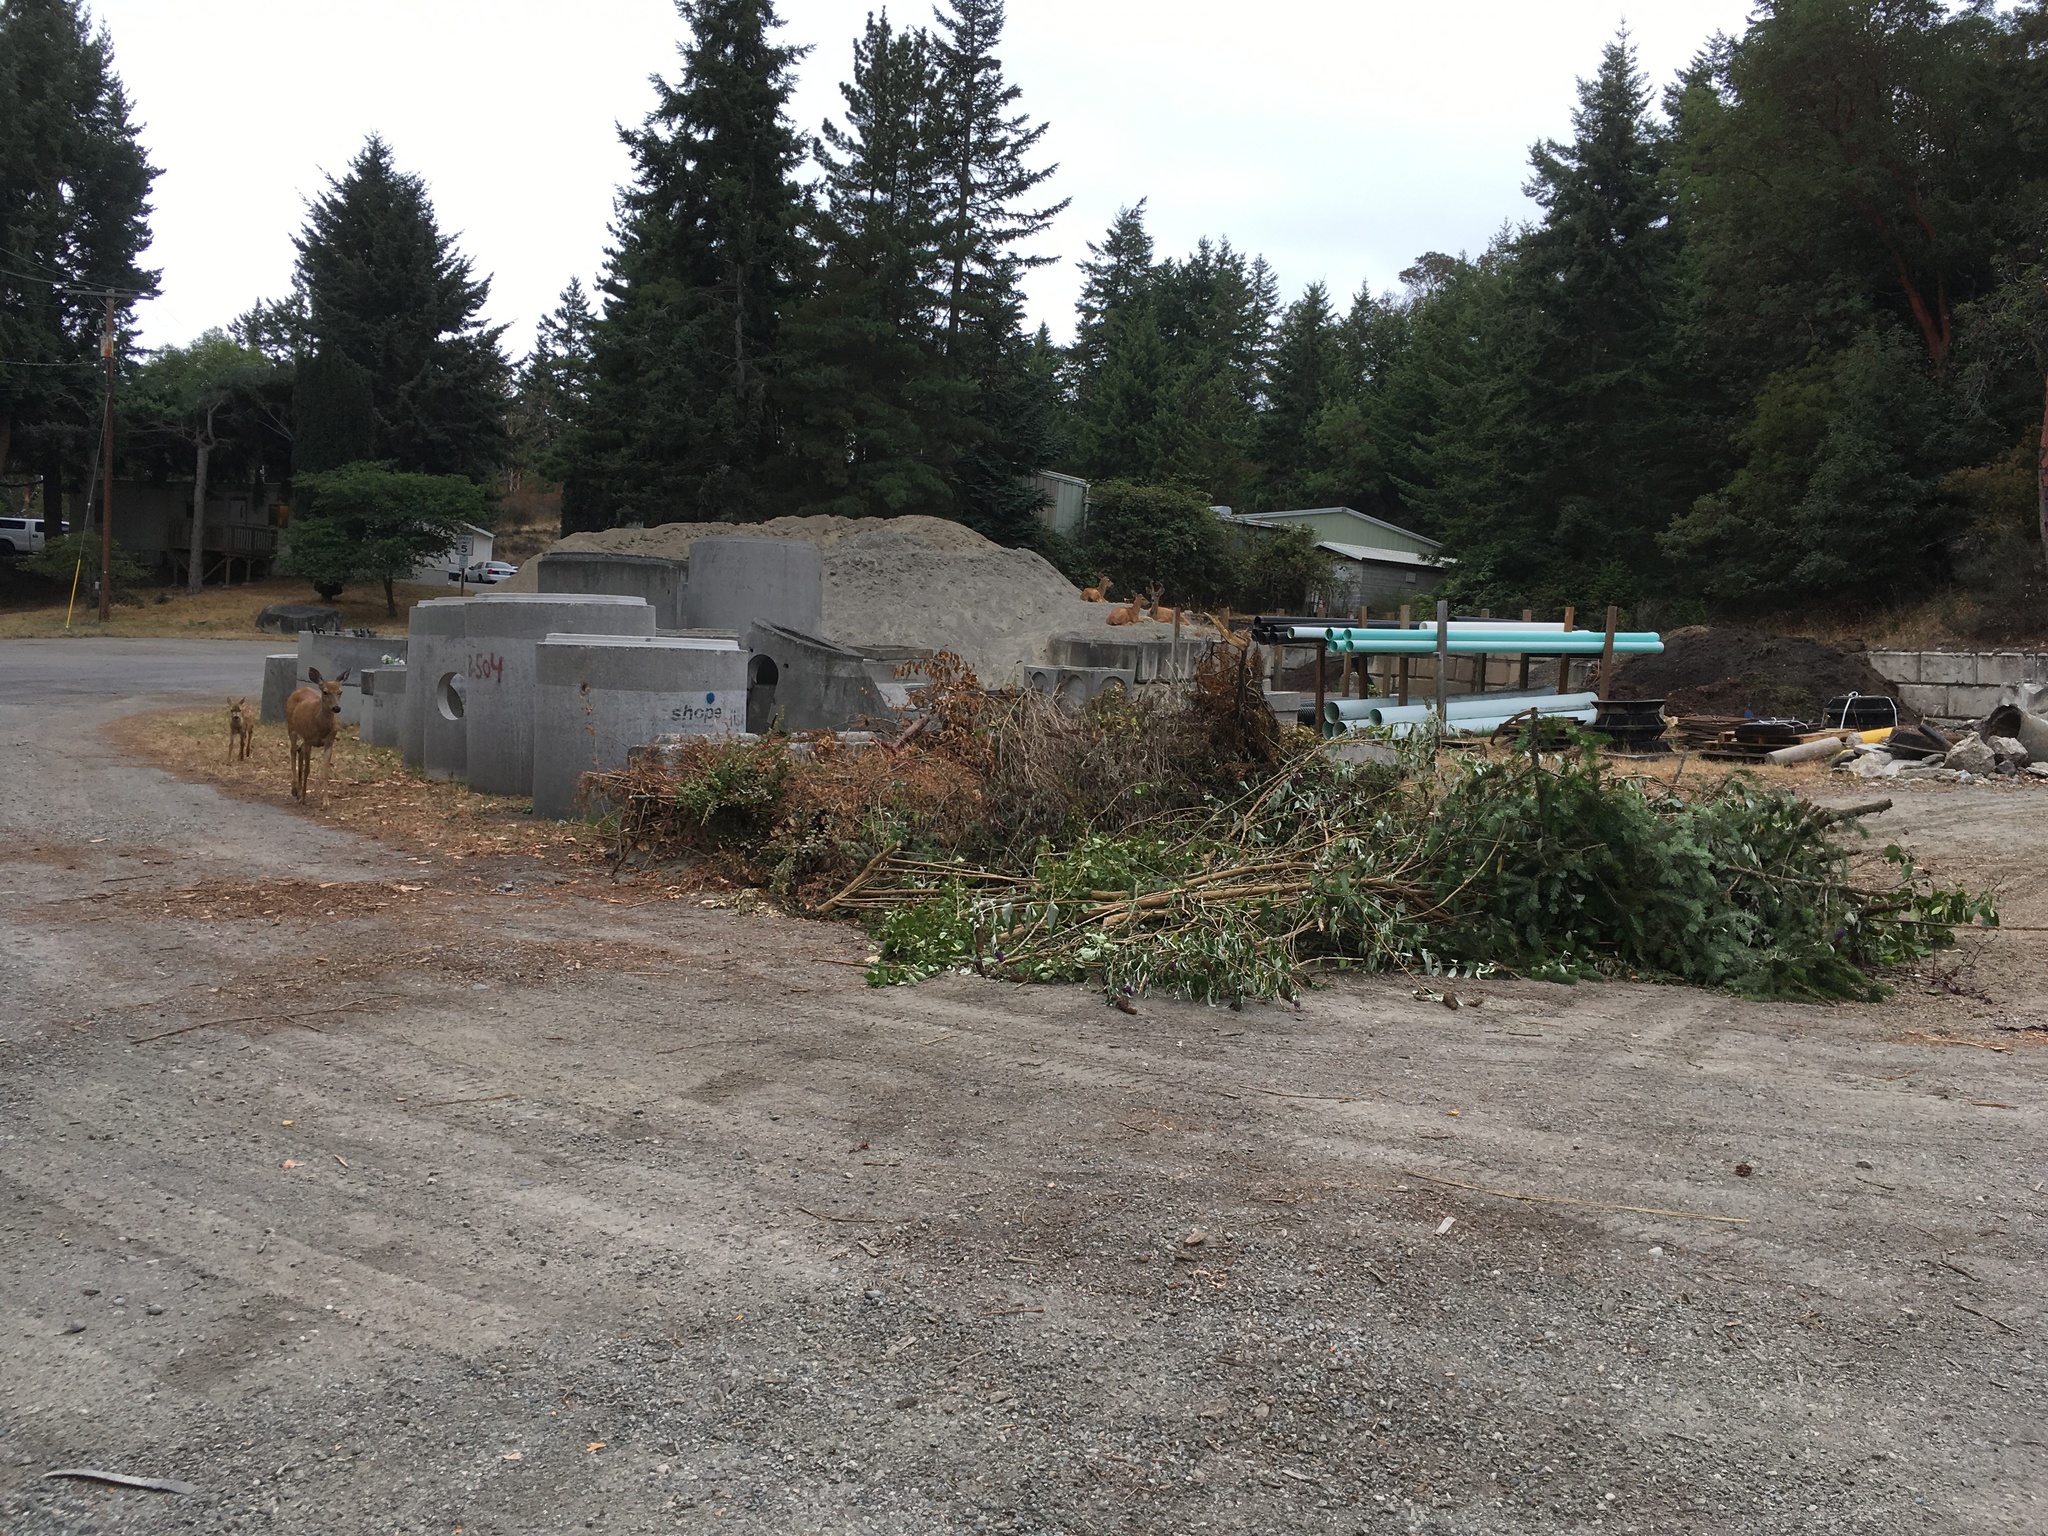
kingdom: Animalia
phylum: Chordata
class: Mammalia
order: Artiodactyla
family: Cervidae
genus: Odocoileus
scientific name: Odocoileus hemionus
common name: Mule deer
